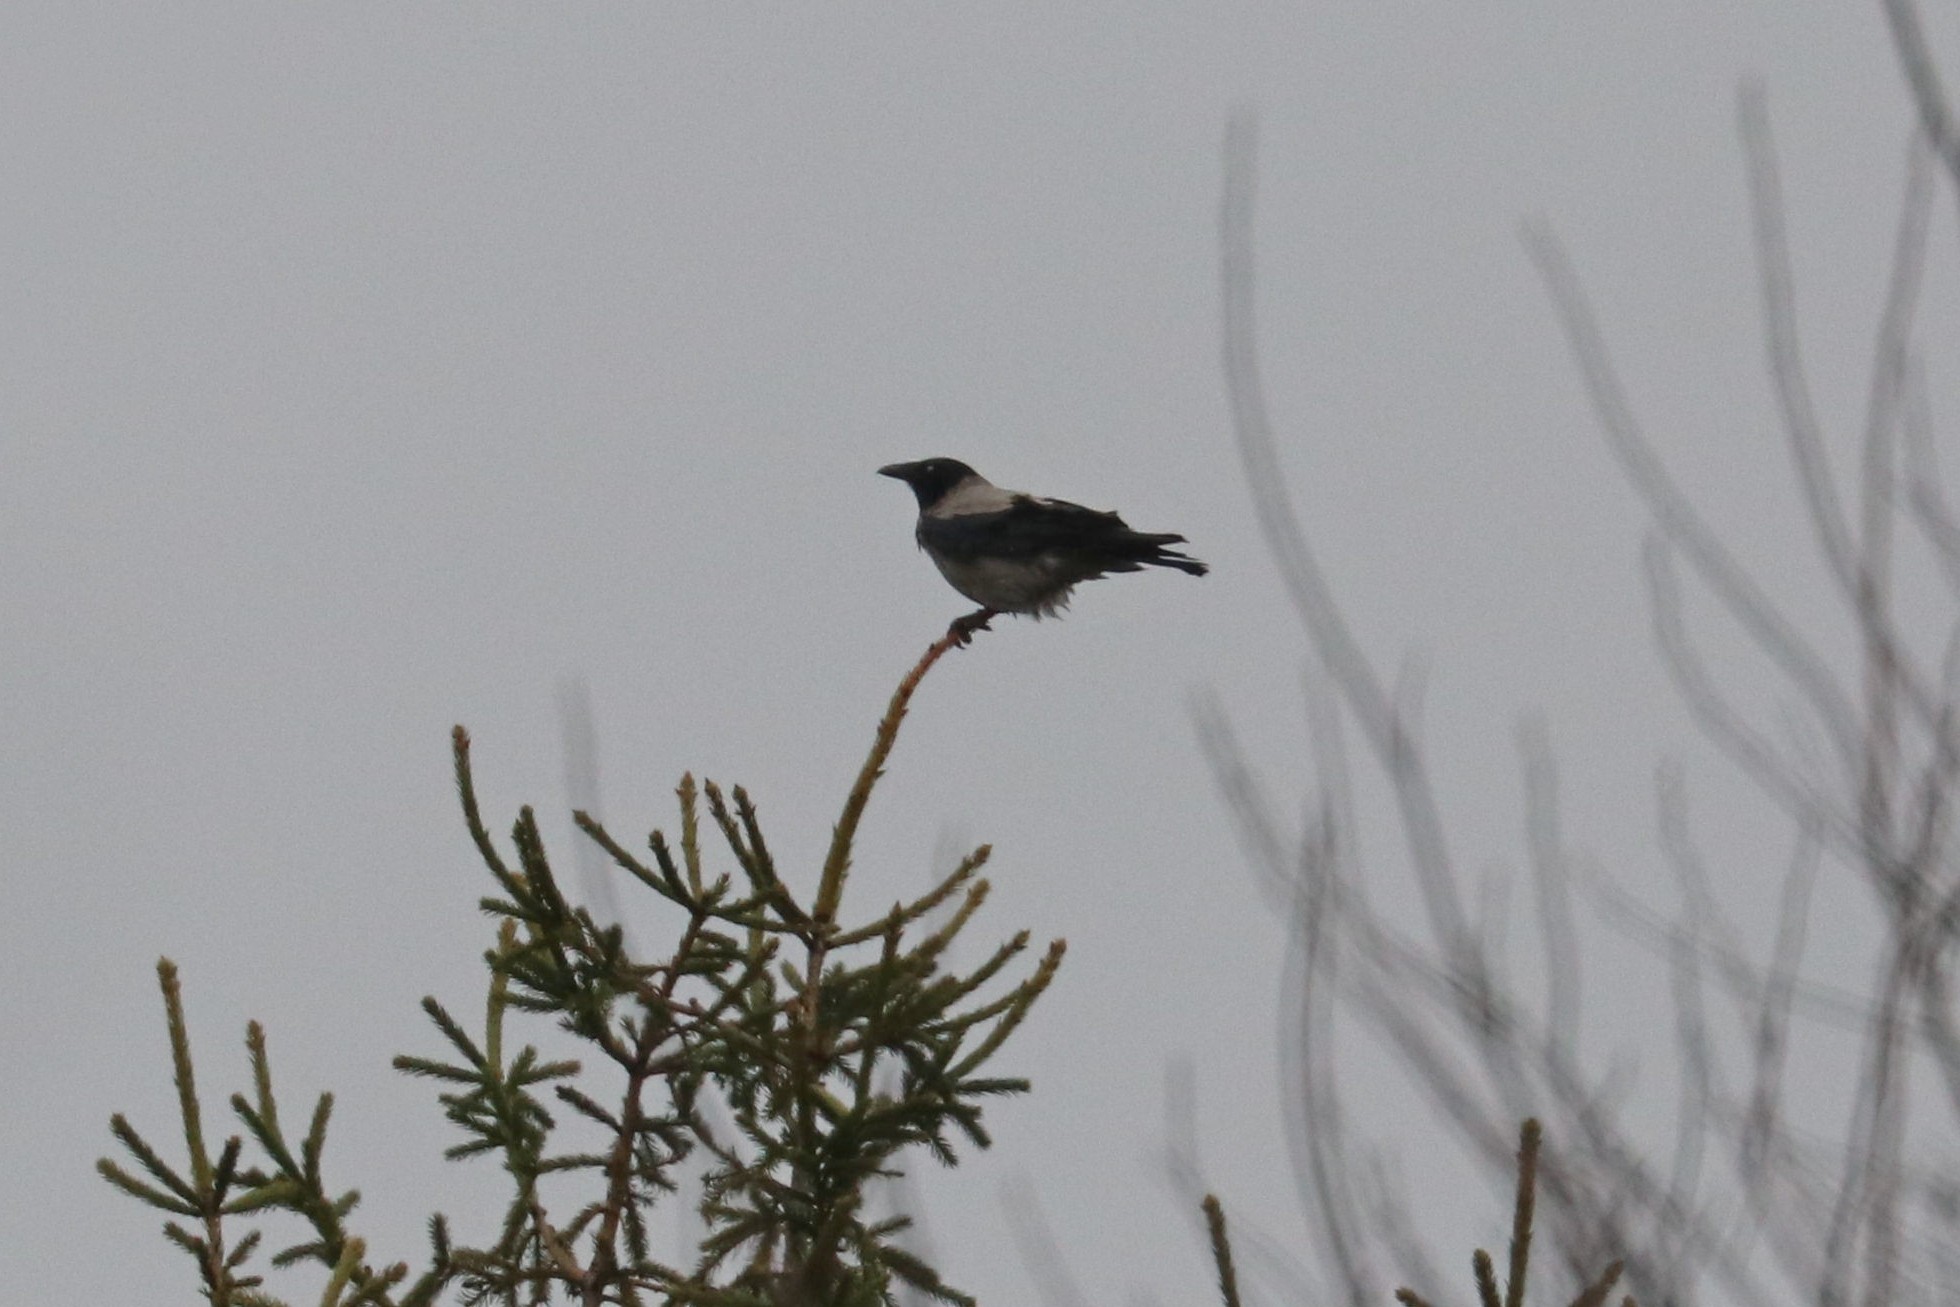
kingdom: Animalia
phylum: Chordata
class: Aves
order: Passeriformes
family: Corvidae
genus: Corvus
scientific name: Corvus cornix
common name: Hooded crow
